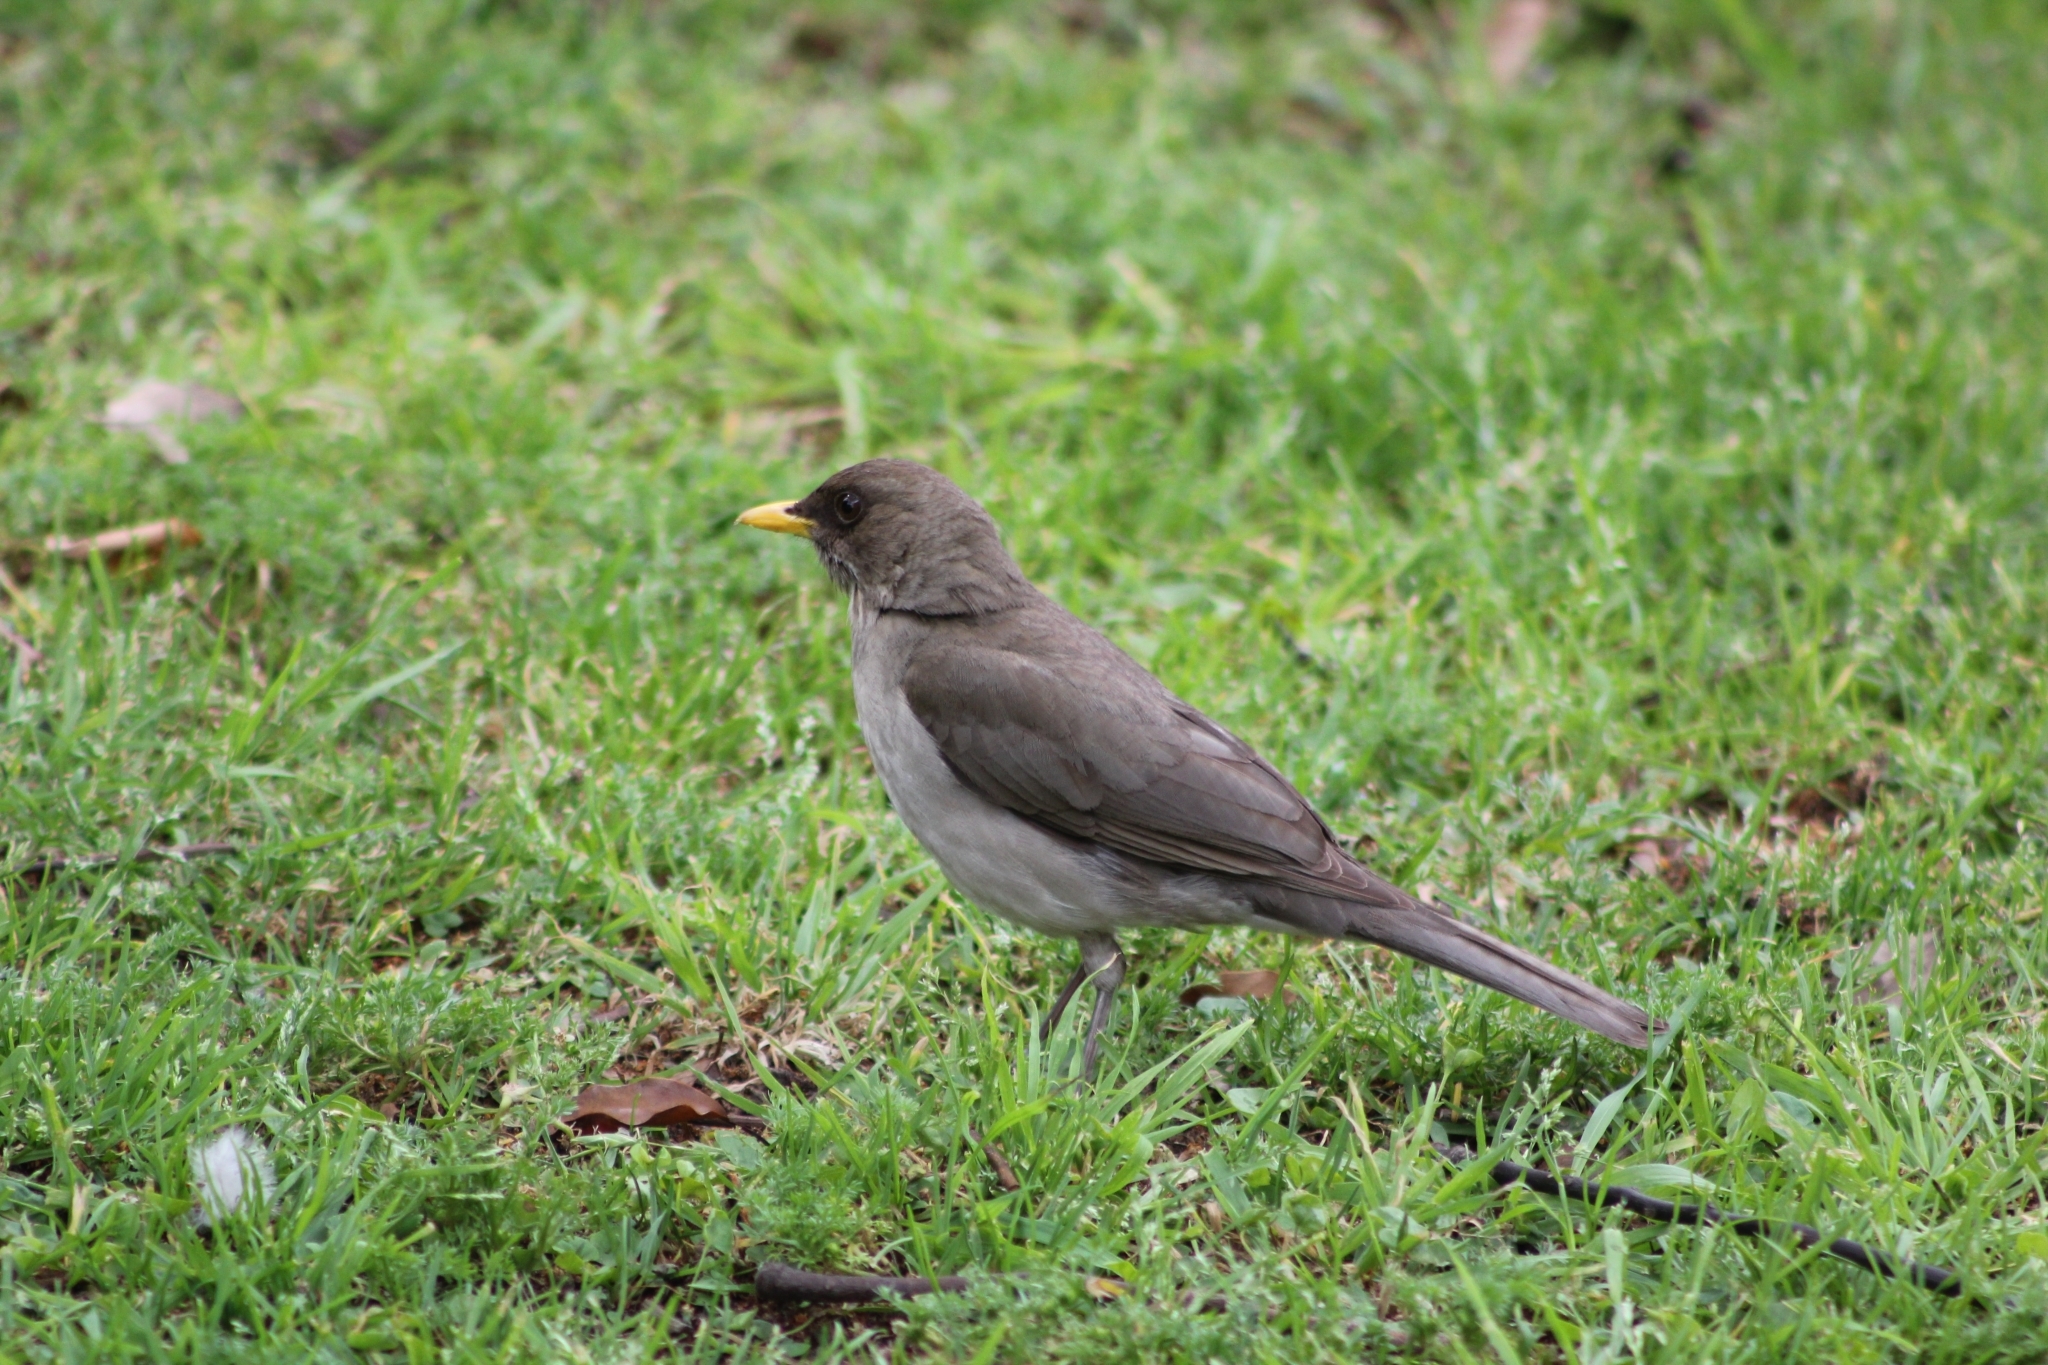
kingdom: Animalia
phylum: Chordata
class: Aves
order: Passeriformes
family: Turdidae
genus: Turdus
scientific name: Turdus amaurochalinus
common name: Creamy-bellied thrush
